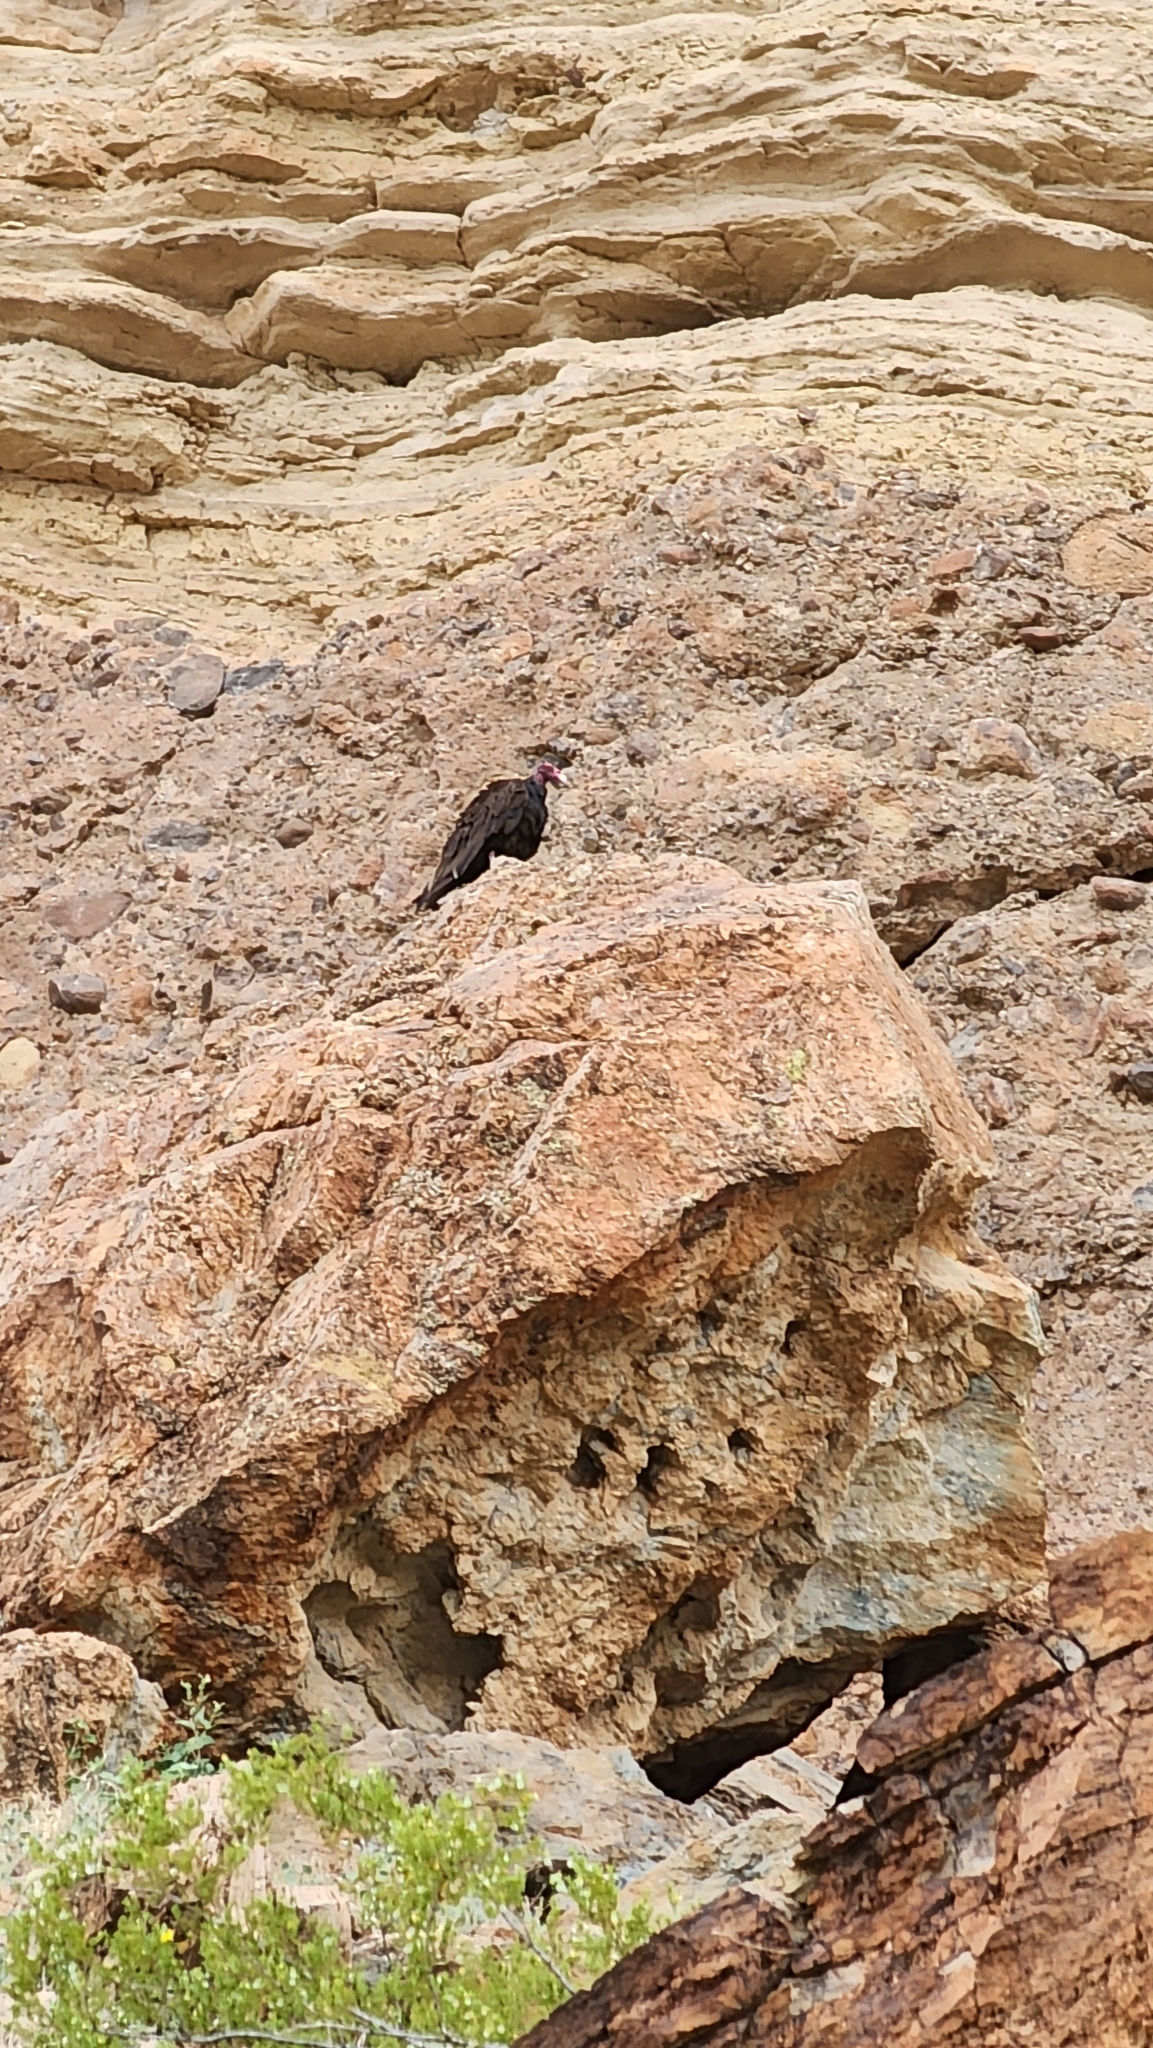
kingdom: Animalia
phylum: Chordata
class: Aves
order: Accipitriformes
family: Cathartidae
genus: Cathartes
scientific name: Cathartes aura
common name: Turkey vulture
